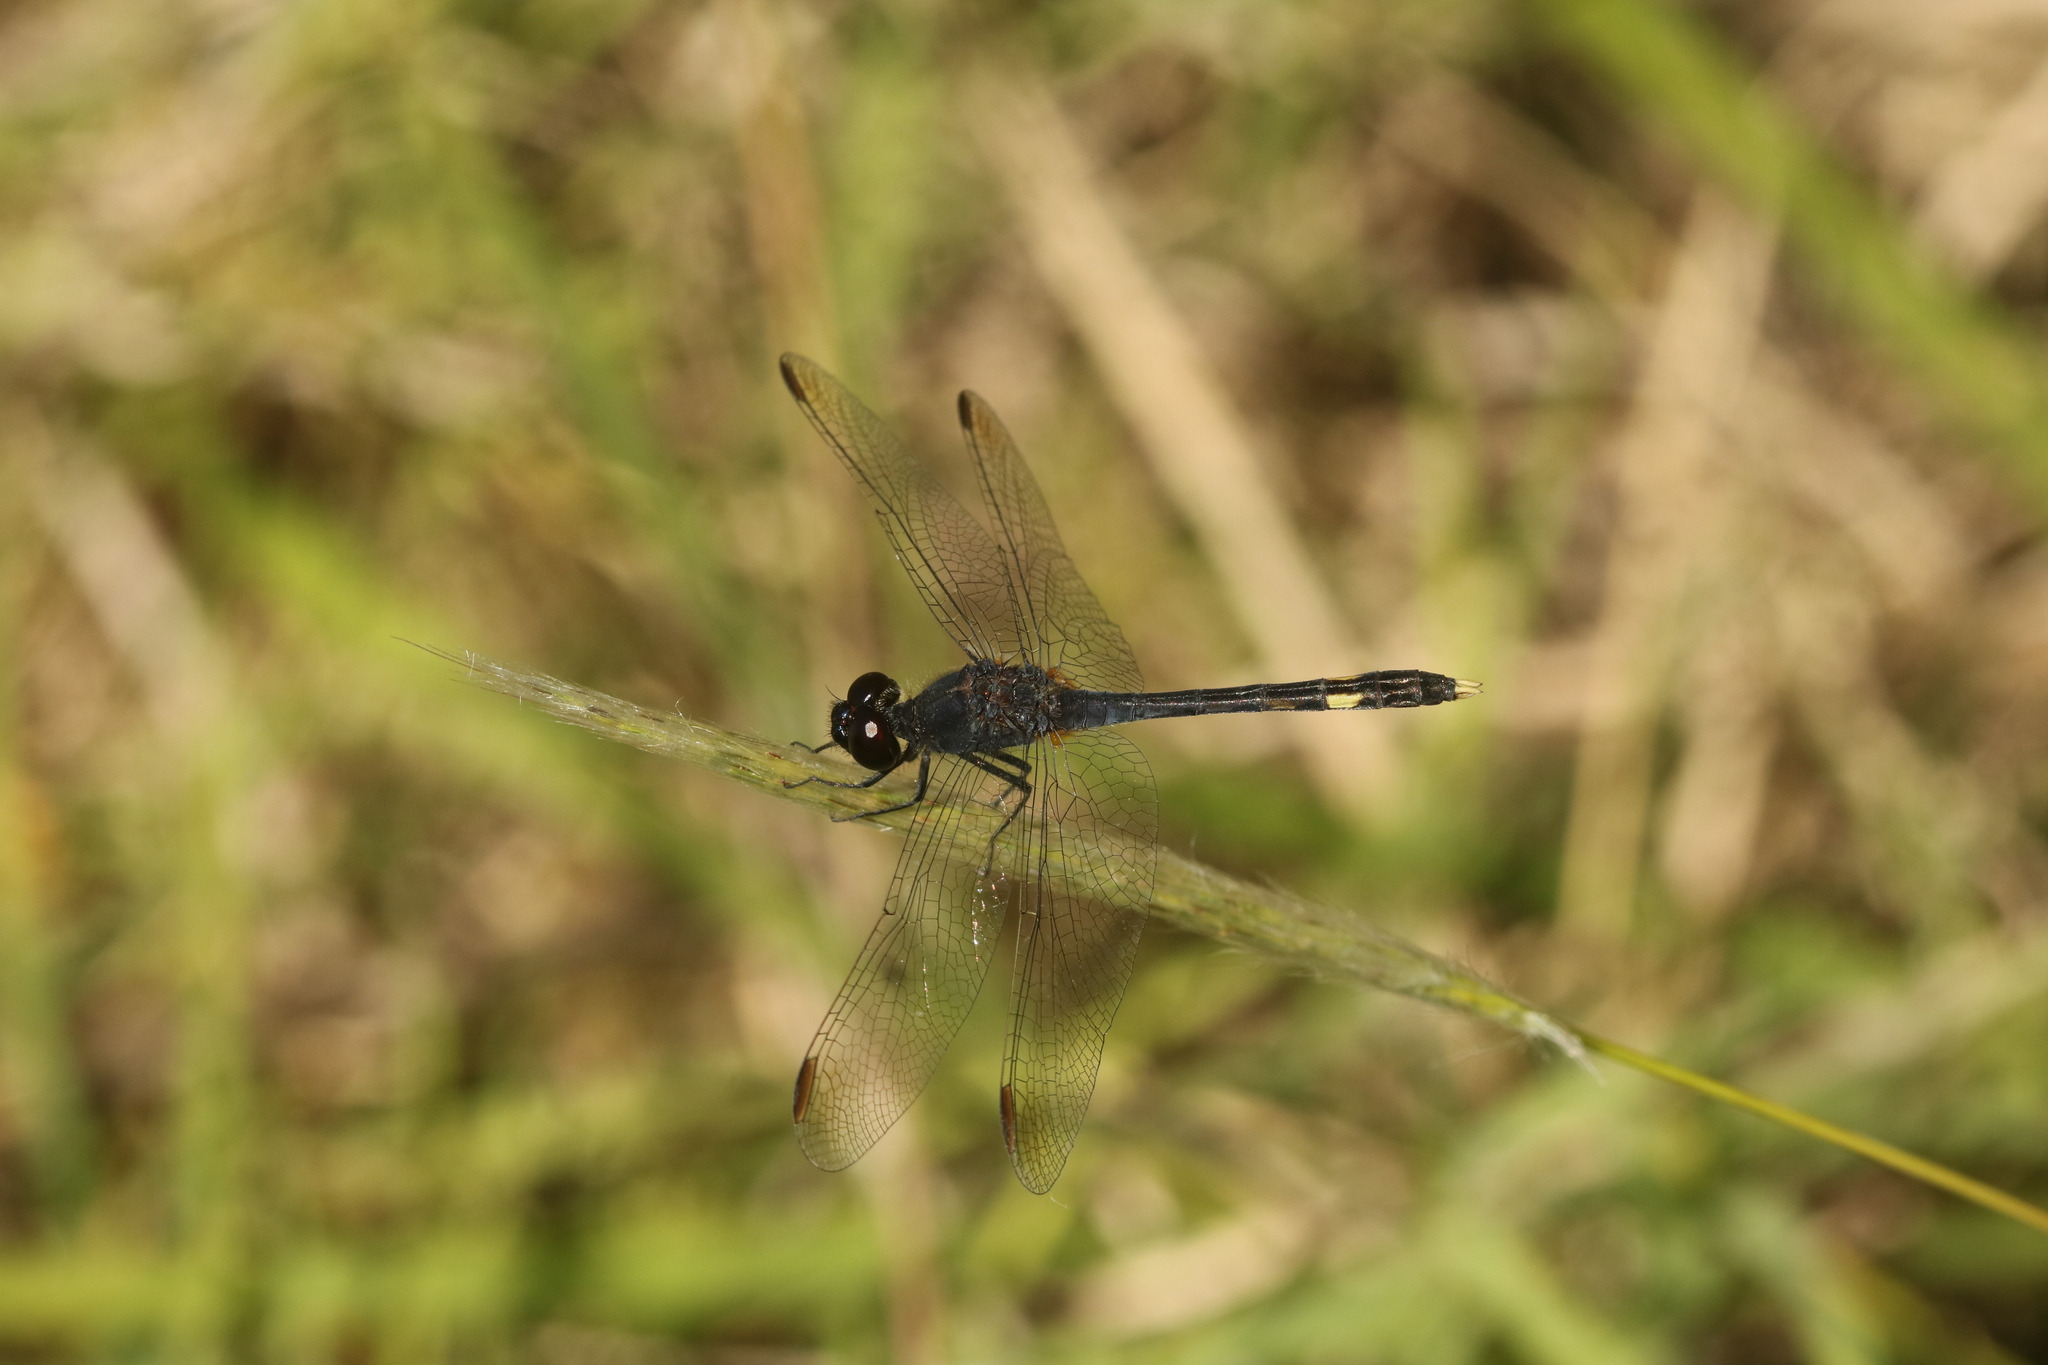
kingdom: Animalia
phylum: Arthropoda
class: Insecta
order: Odonata
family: Libellulidae
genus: Erythrodiplax
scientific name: Erythrodiplax nigricans
